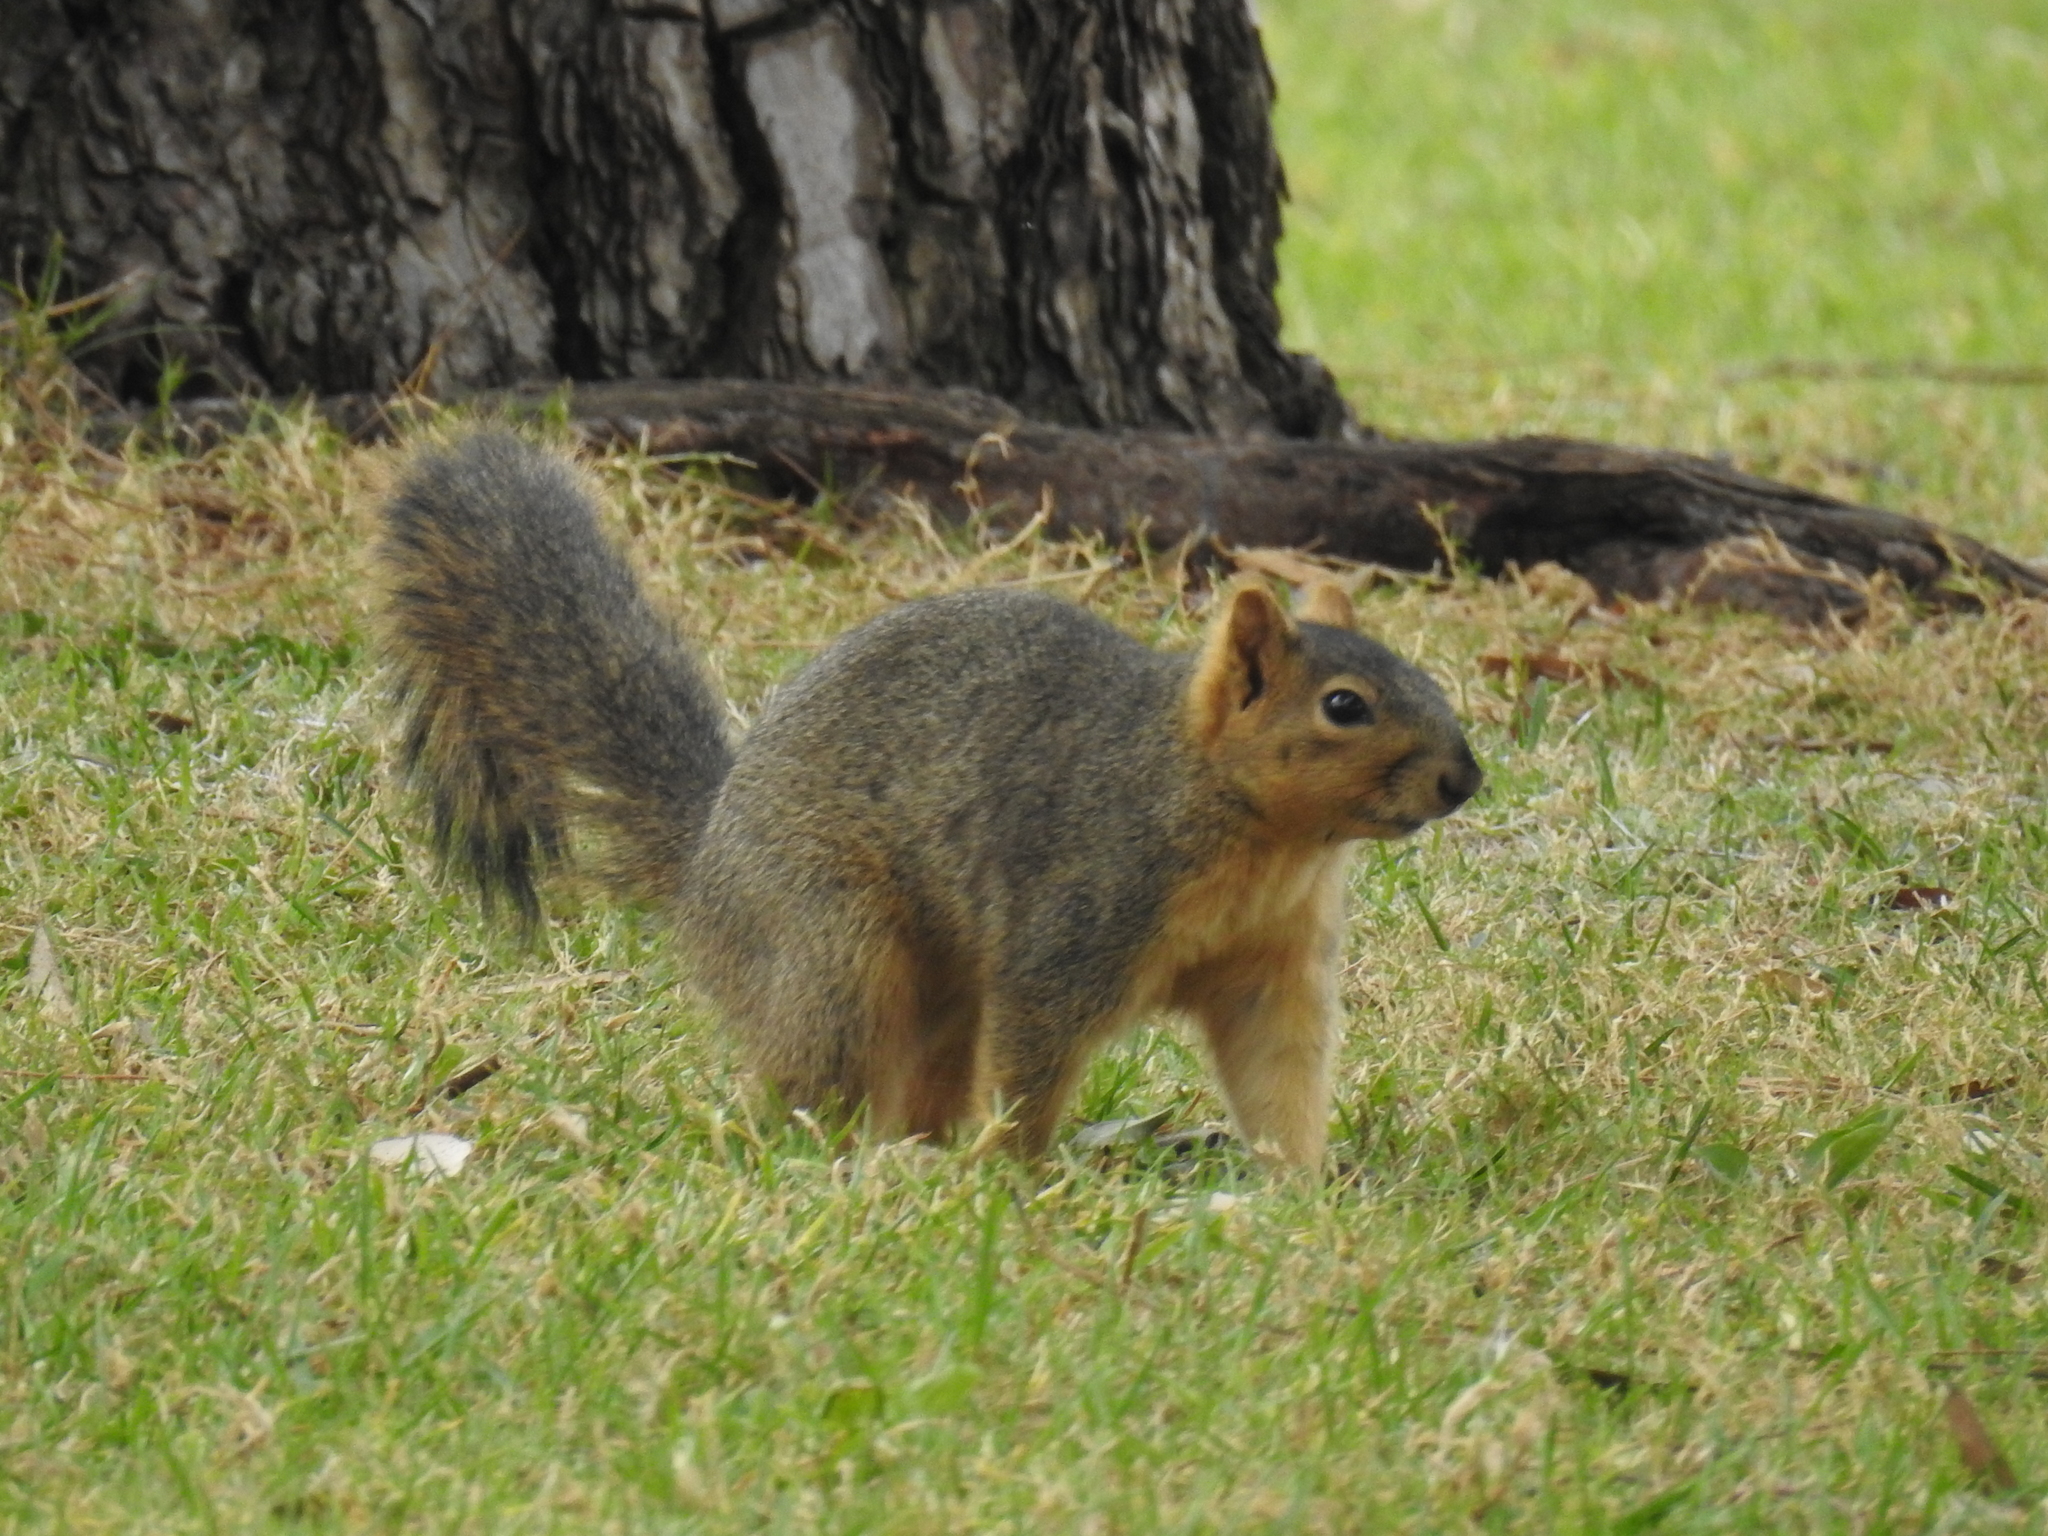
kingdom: Animalia
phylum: Chordata
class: Mammalia
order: Rodentia
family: Sciuridae
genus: Sciurus
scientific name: Sciurus niger
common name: Fox squirrel
